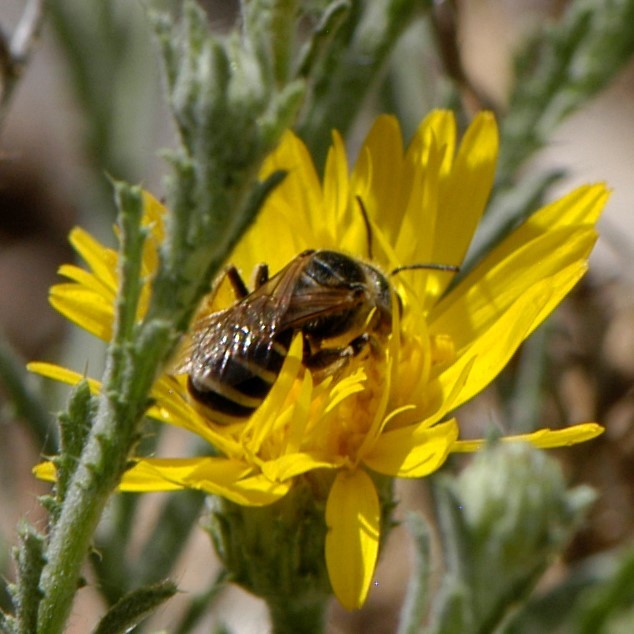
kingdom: Animalia
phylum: Arthropoda
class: Insecta
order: Hymenoptera
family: Halictidae
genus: Halictus
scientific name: Halictus ligatus
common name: Ligated furrow bee
